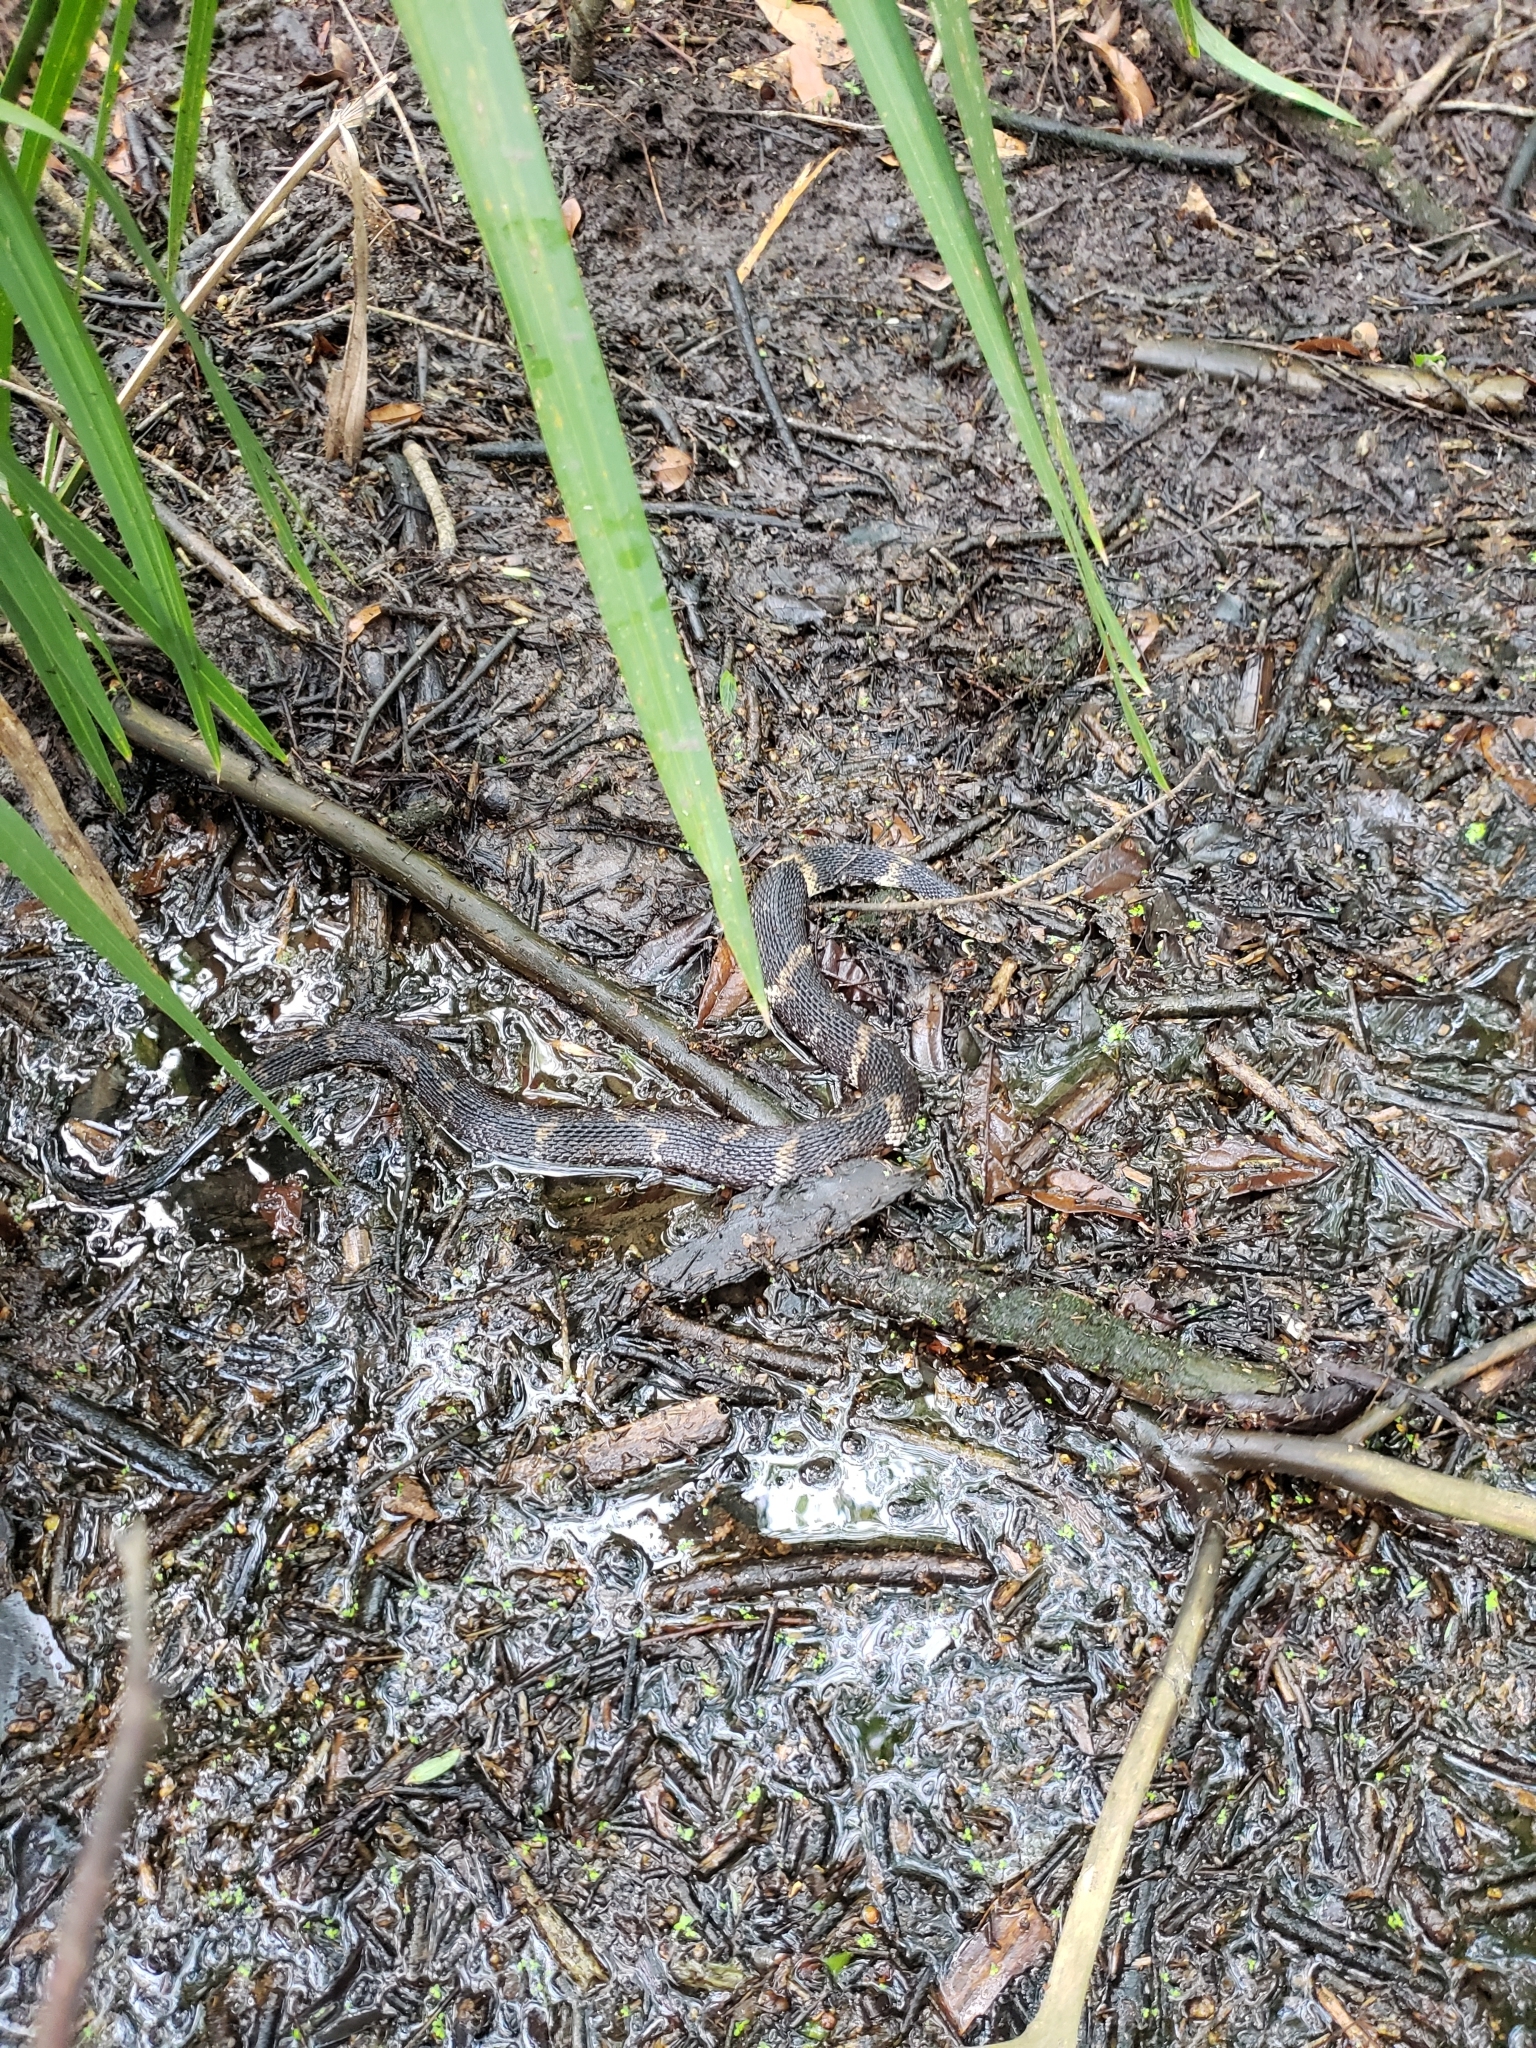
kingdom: Animalia
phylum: Chordata
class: Squamata
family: Colubridae
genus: Nerodia
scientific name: Nerodia fasciata
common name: Southern water snake
